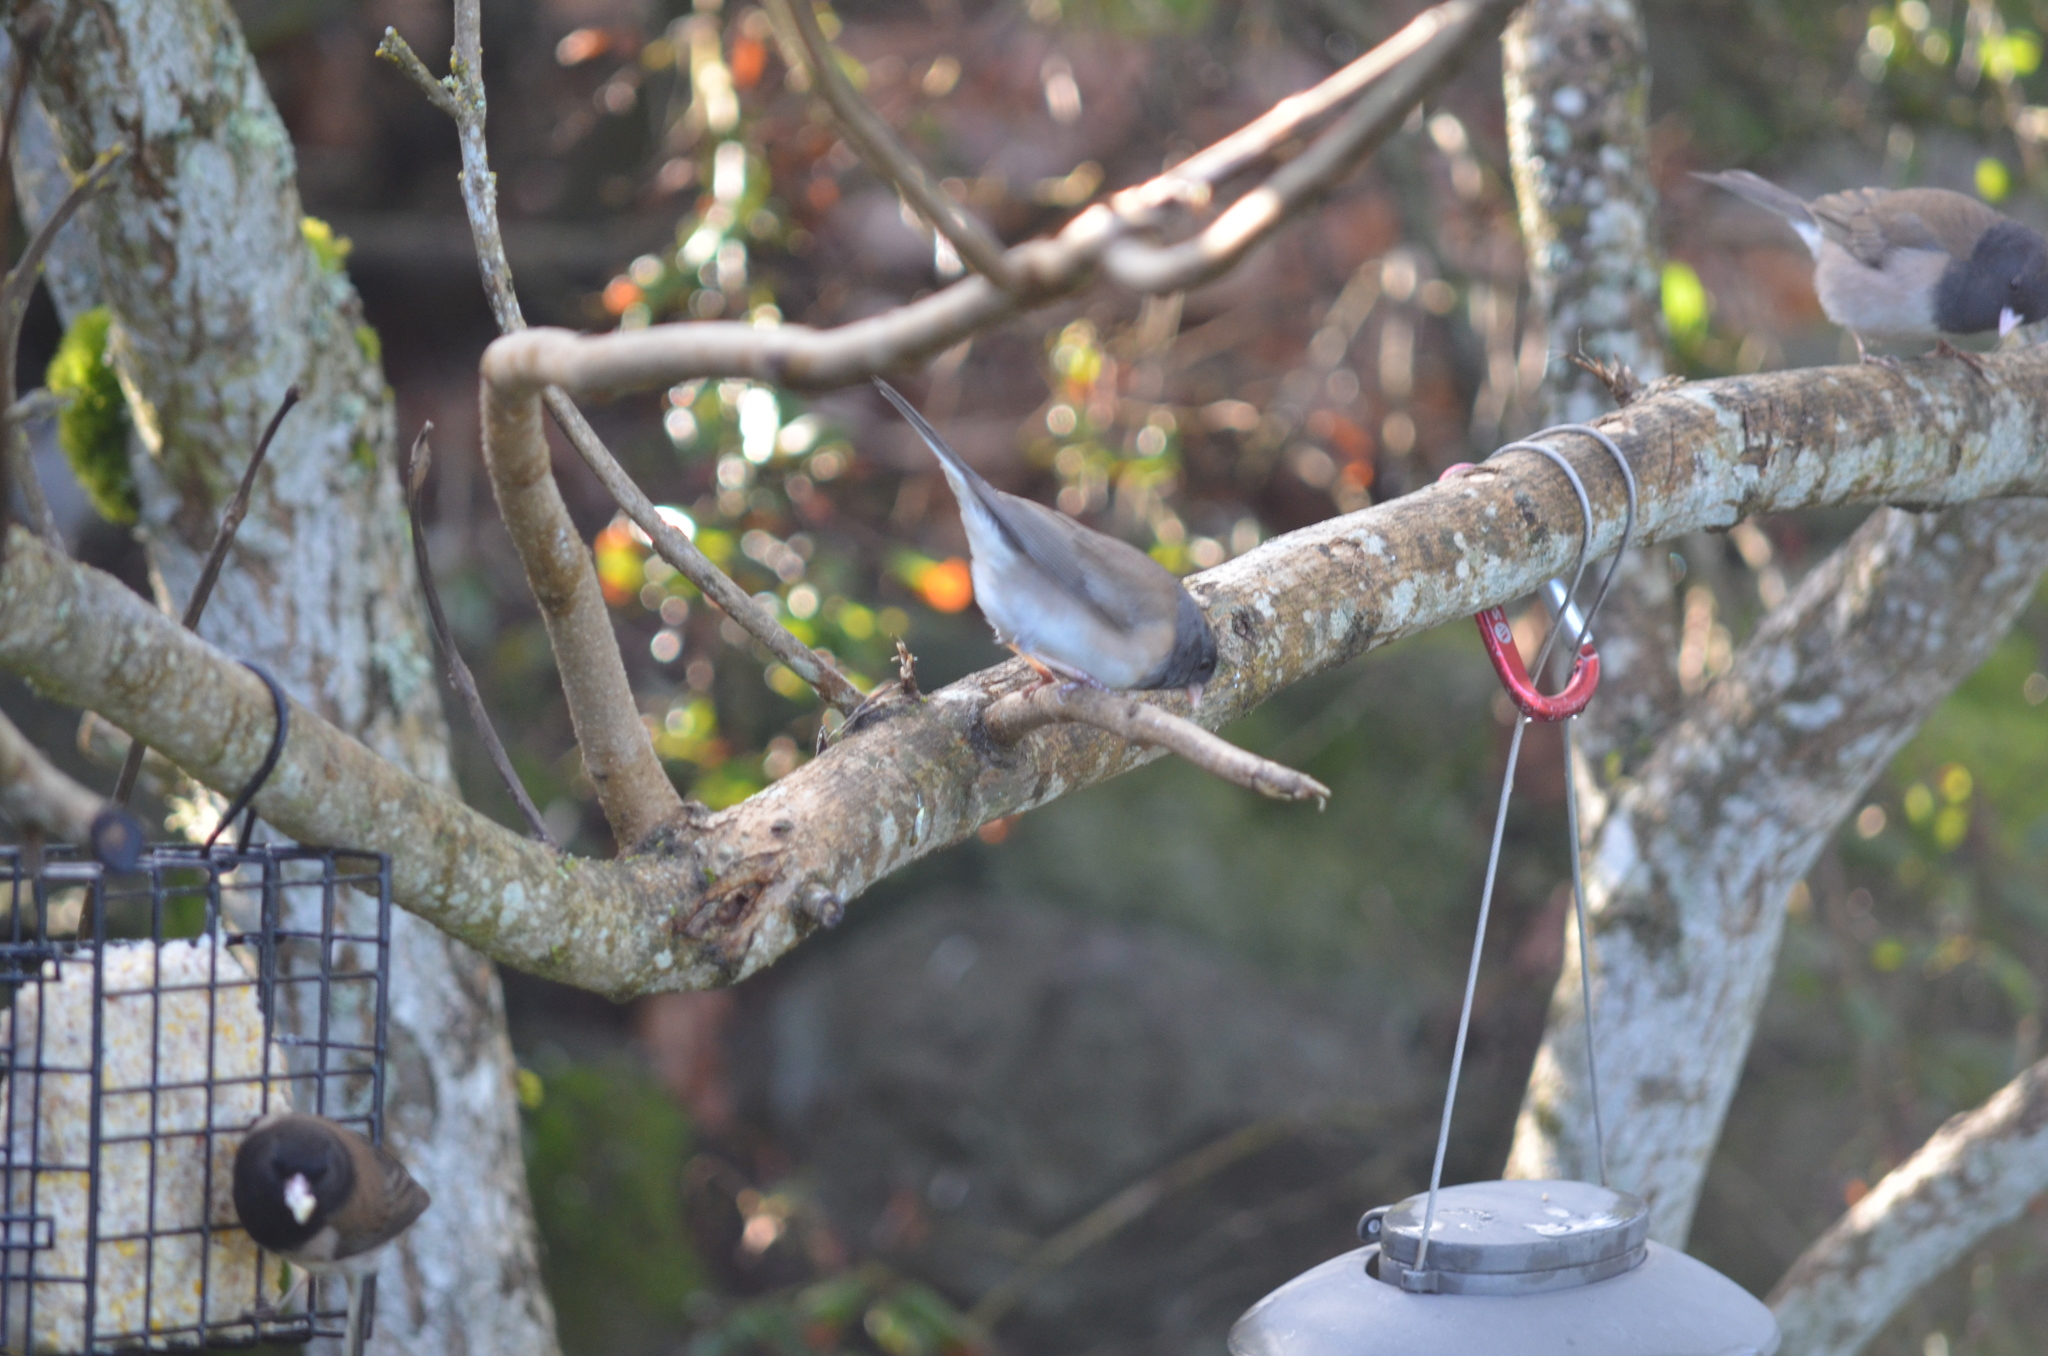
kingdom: Animalia
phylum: Chordata
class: Aves
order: Passeriformes
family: Passerellidae
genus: Junco
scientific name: Junco hyemalis
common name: Dark-eyed junco
